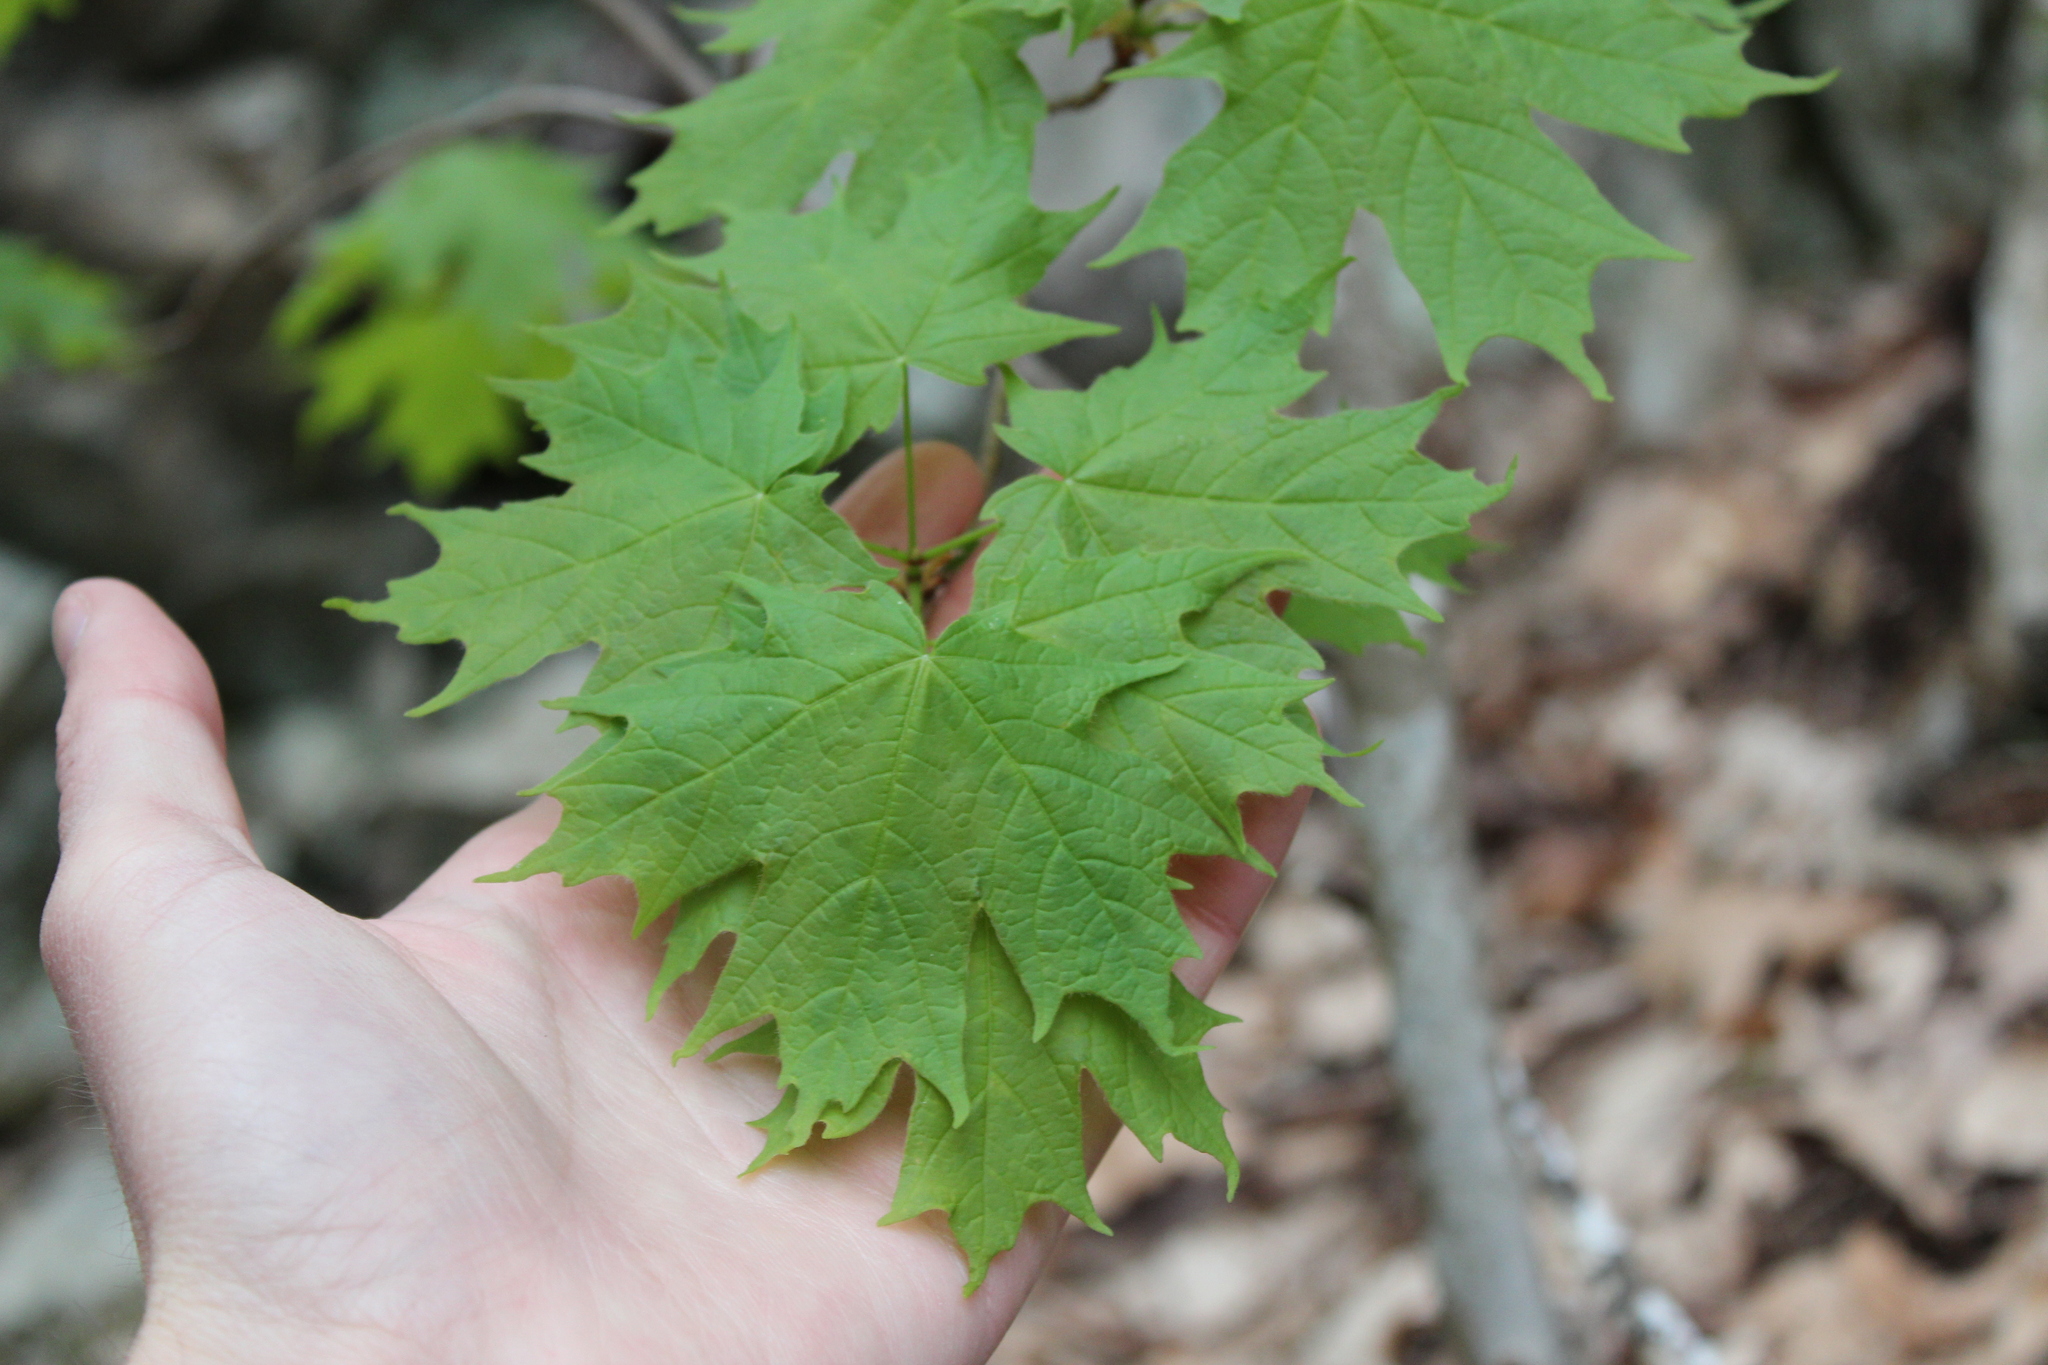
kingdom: Plantae
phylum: Tracheophyta
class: Magnoliopsida
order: Sapindales
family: Sapindaceae
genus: Acer
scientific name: Acer saccharum
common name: Sugar maple
